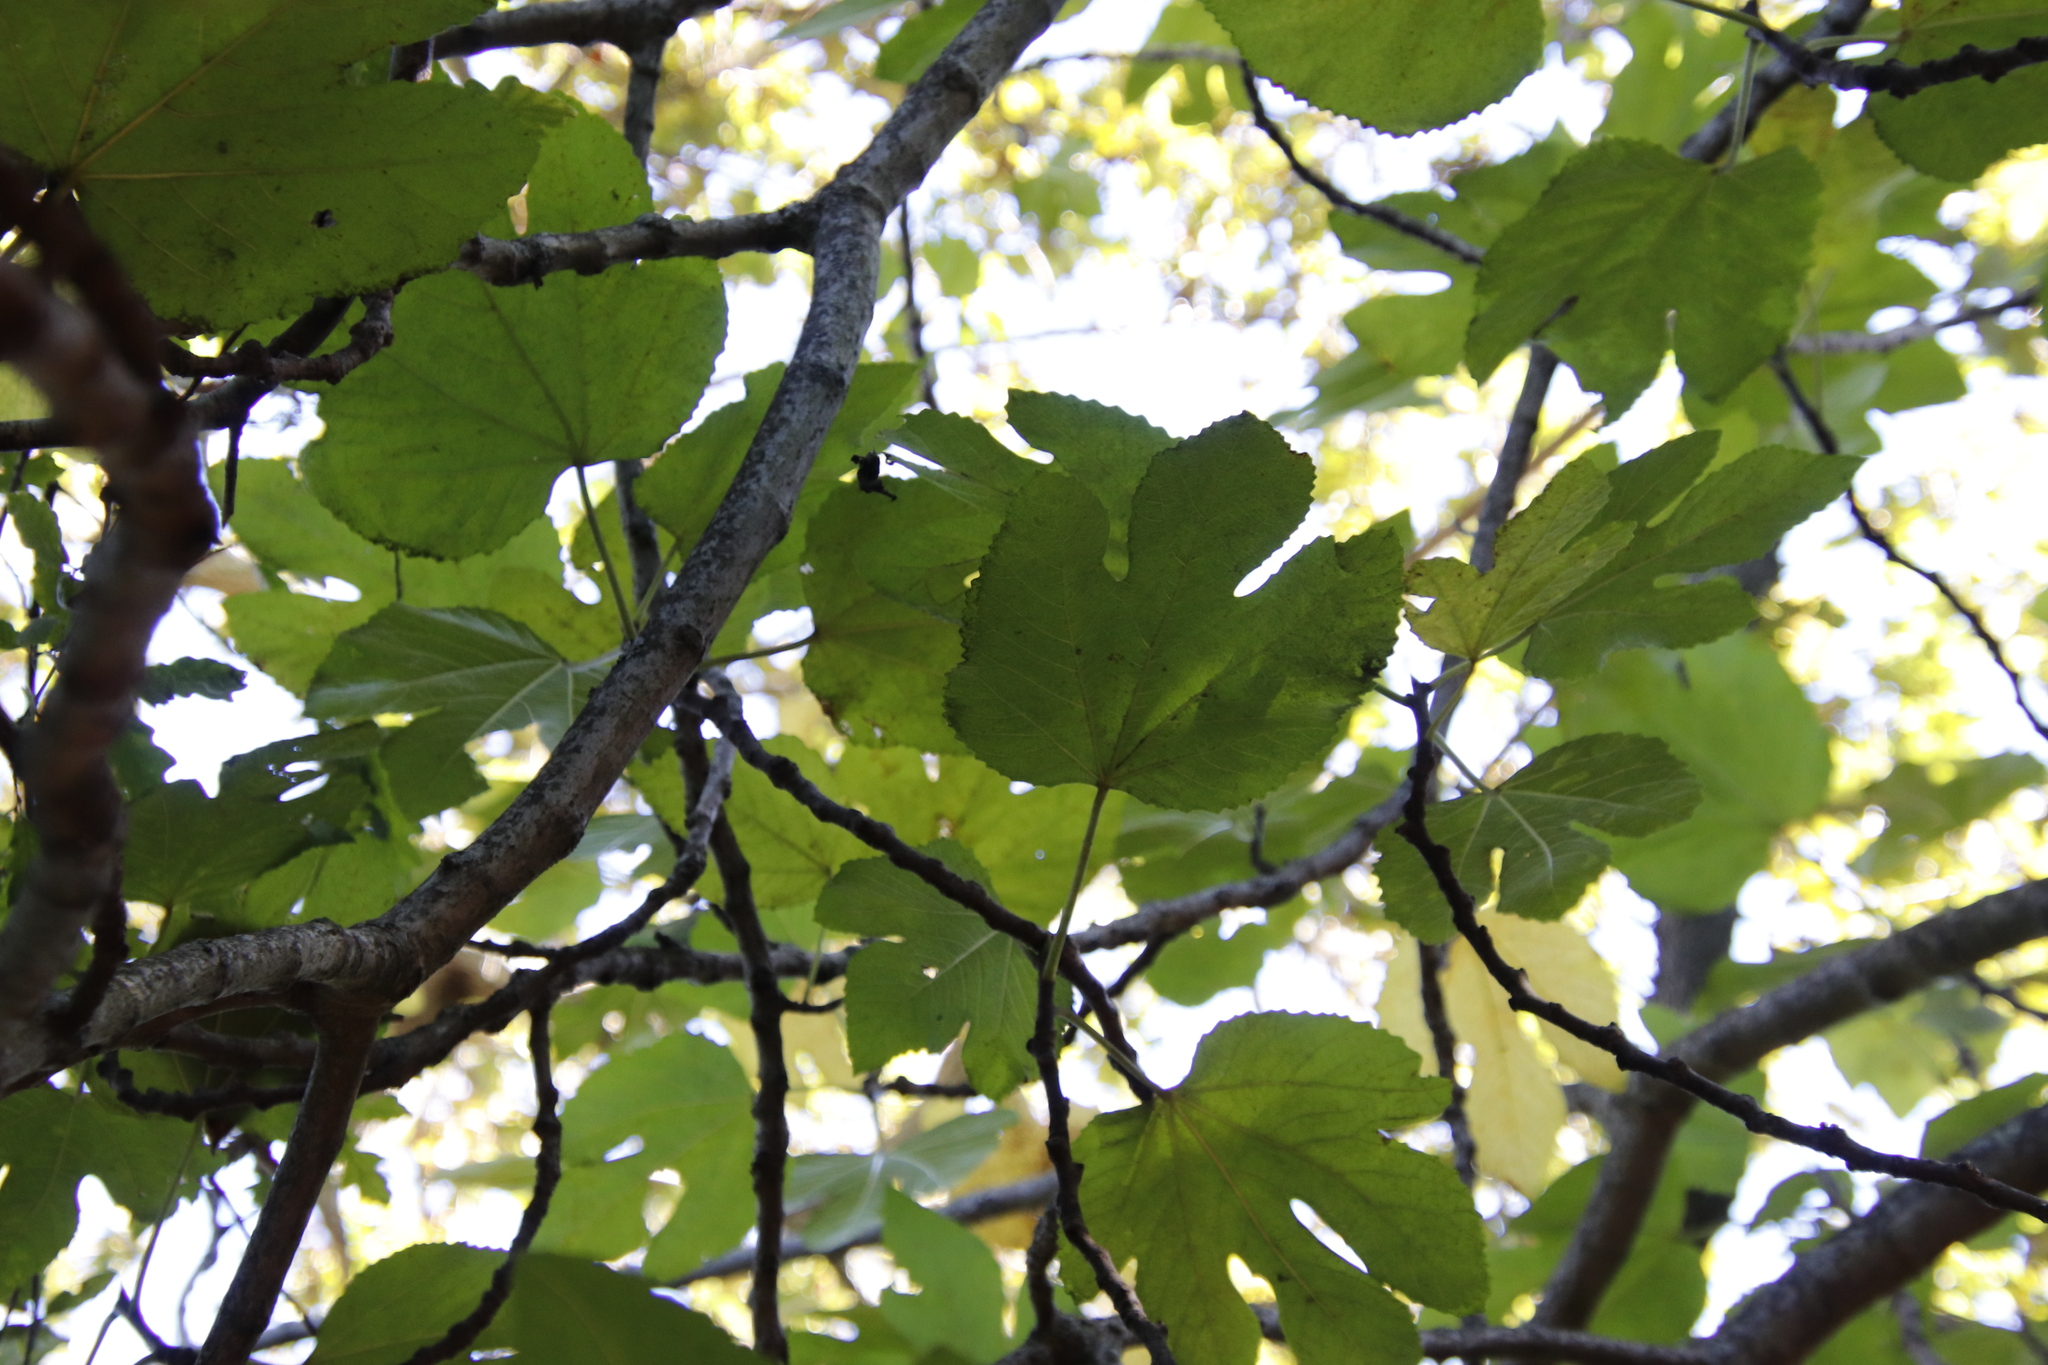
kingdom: Plantae
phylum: Tracheophyta
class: Magnoliopsida
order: Rosales
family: Moraceae
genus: Ficus
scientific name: Ficus carica
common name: Fig
